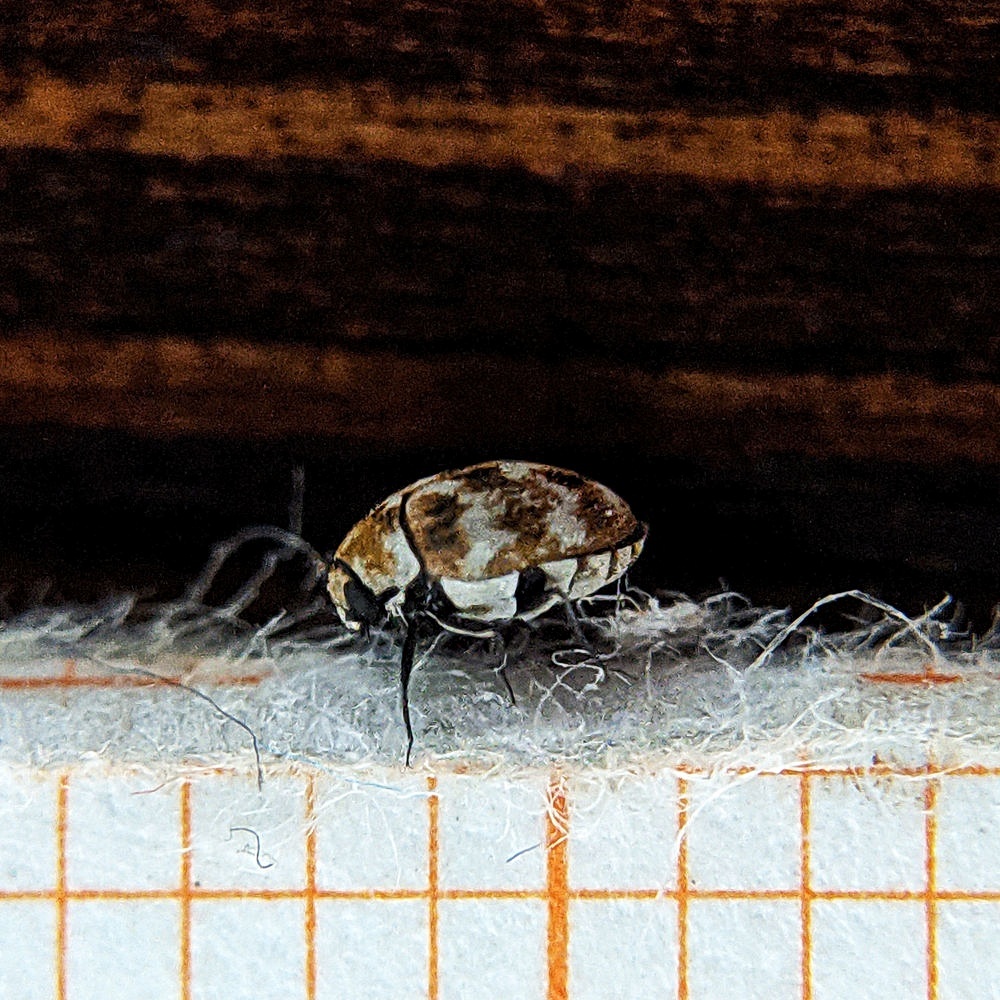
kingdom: Animalia
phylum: Arthropoda
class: Insecta
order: Coleoptera
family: Dermestidae
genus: Anthrenus
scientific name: Anthrenus verbasci
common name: Varied carpet beetle
